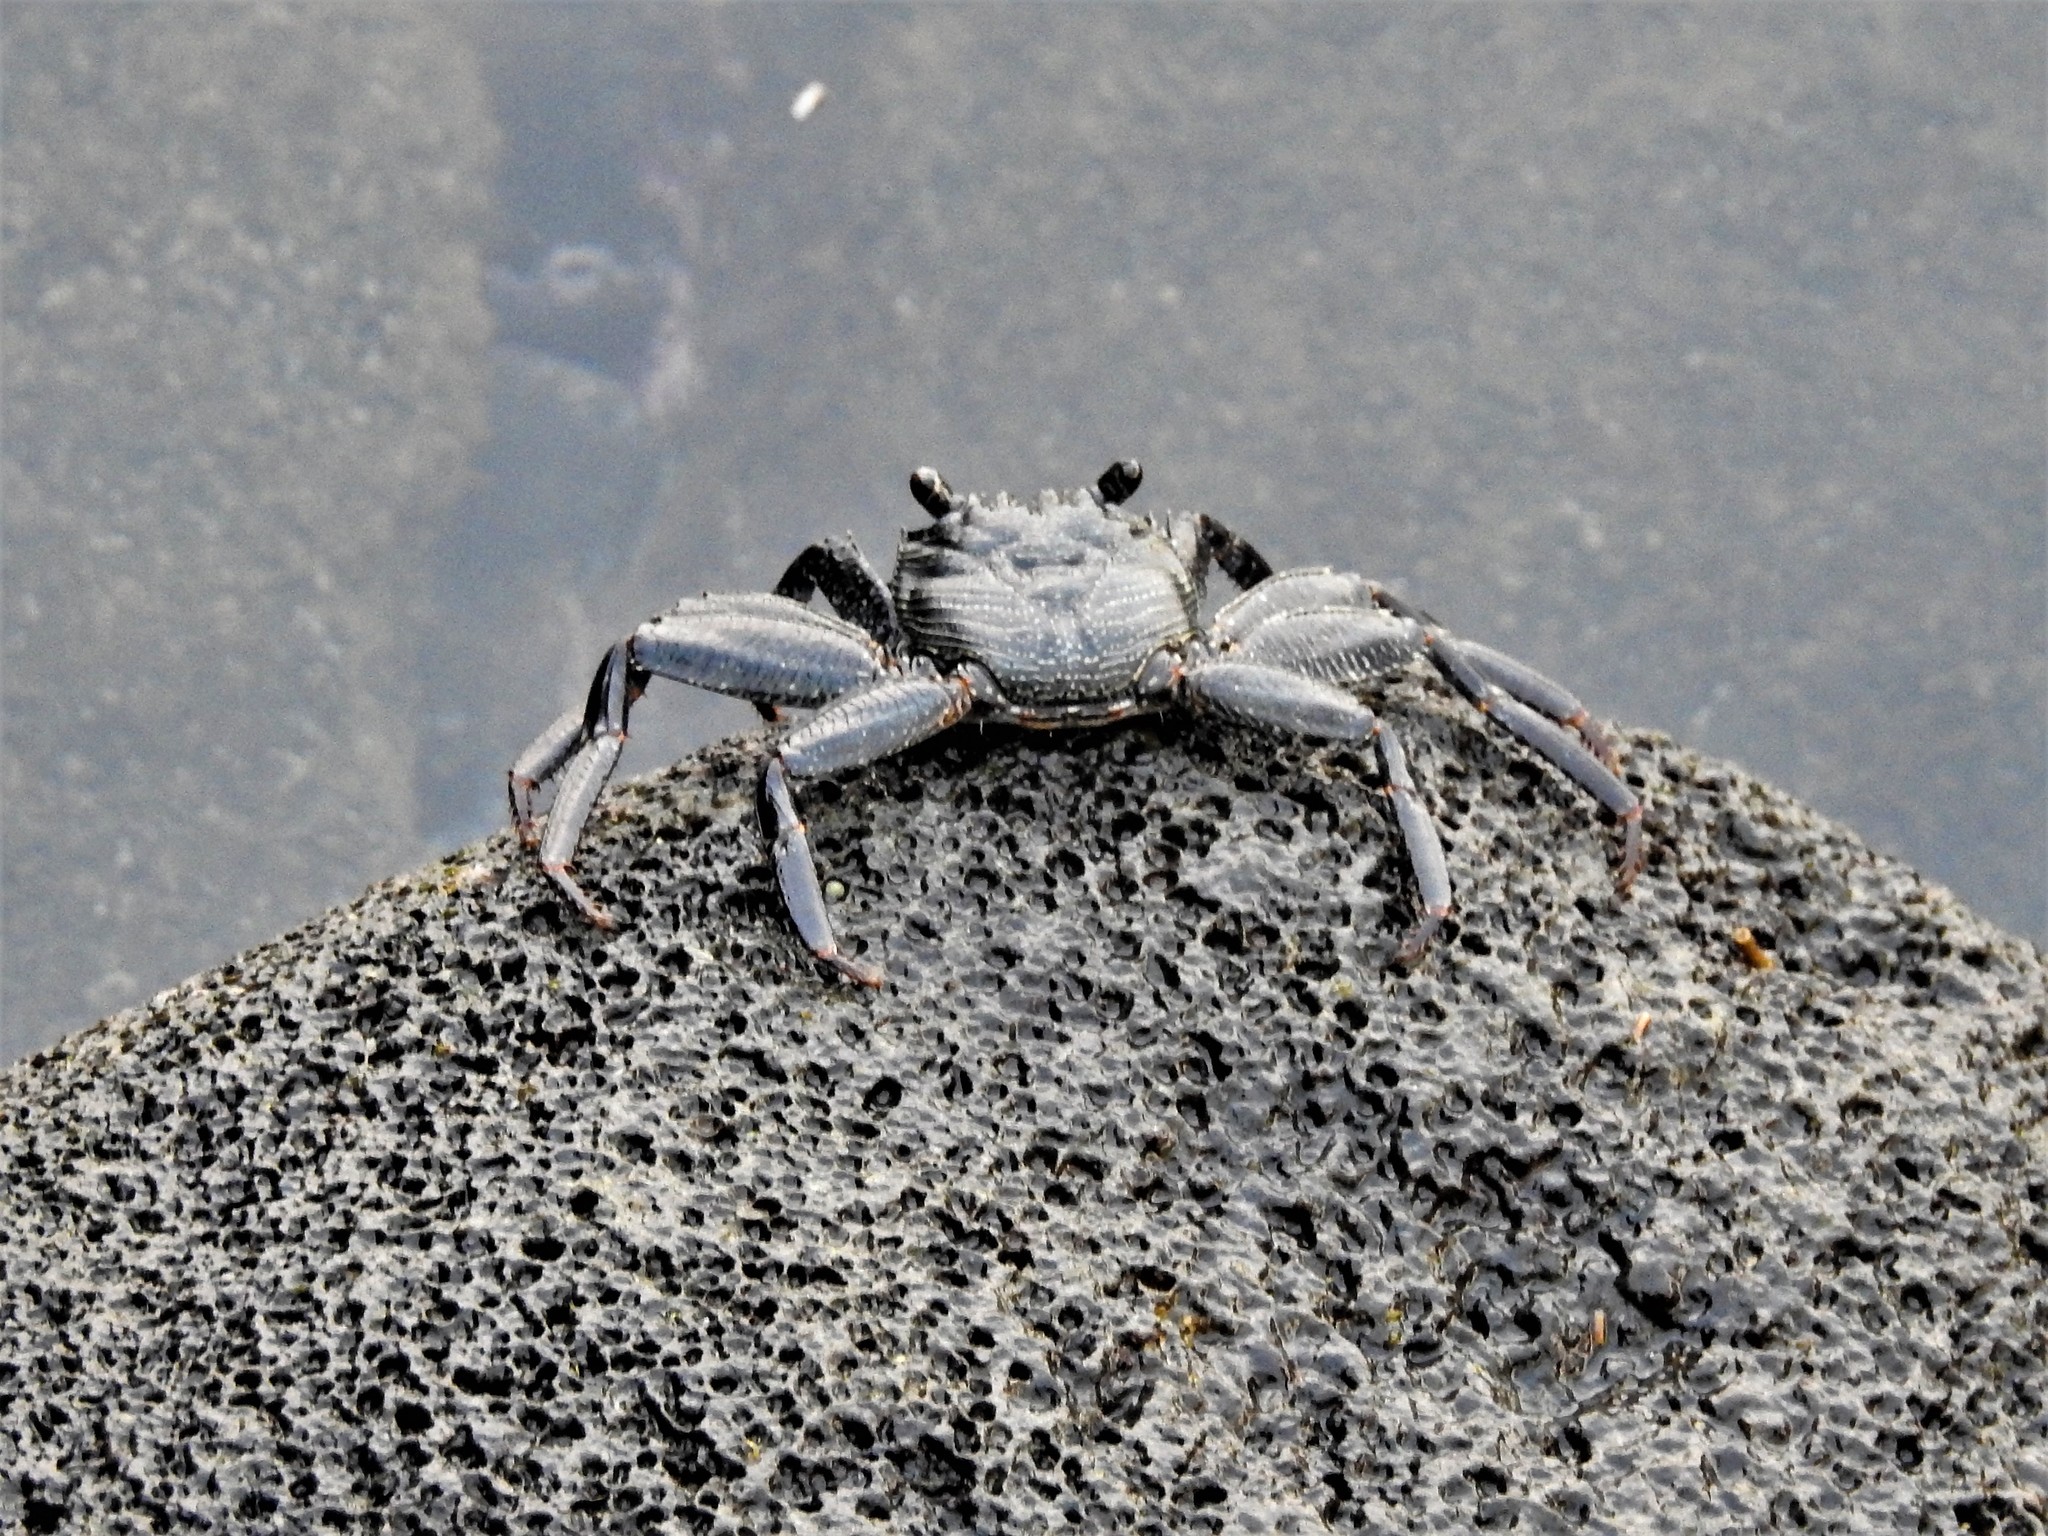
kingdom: Animalia
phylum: Arthropoda
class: Malacostraca
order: Decapoda
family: Grapsidae
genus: Grapsus
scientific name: Grapsus tenuicrustatus
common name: Natal lightfoot crab
